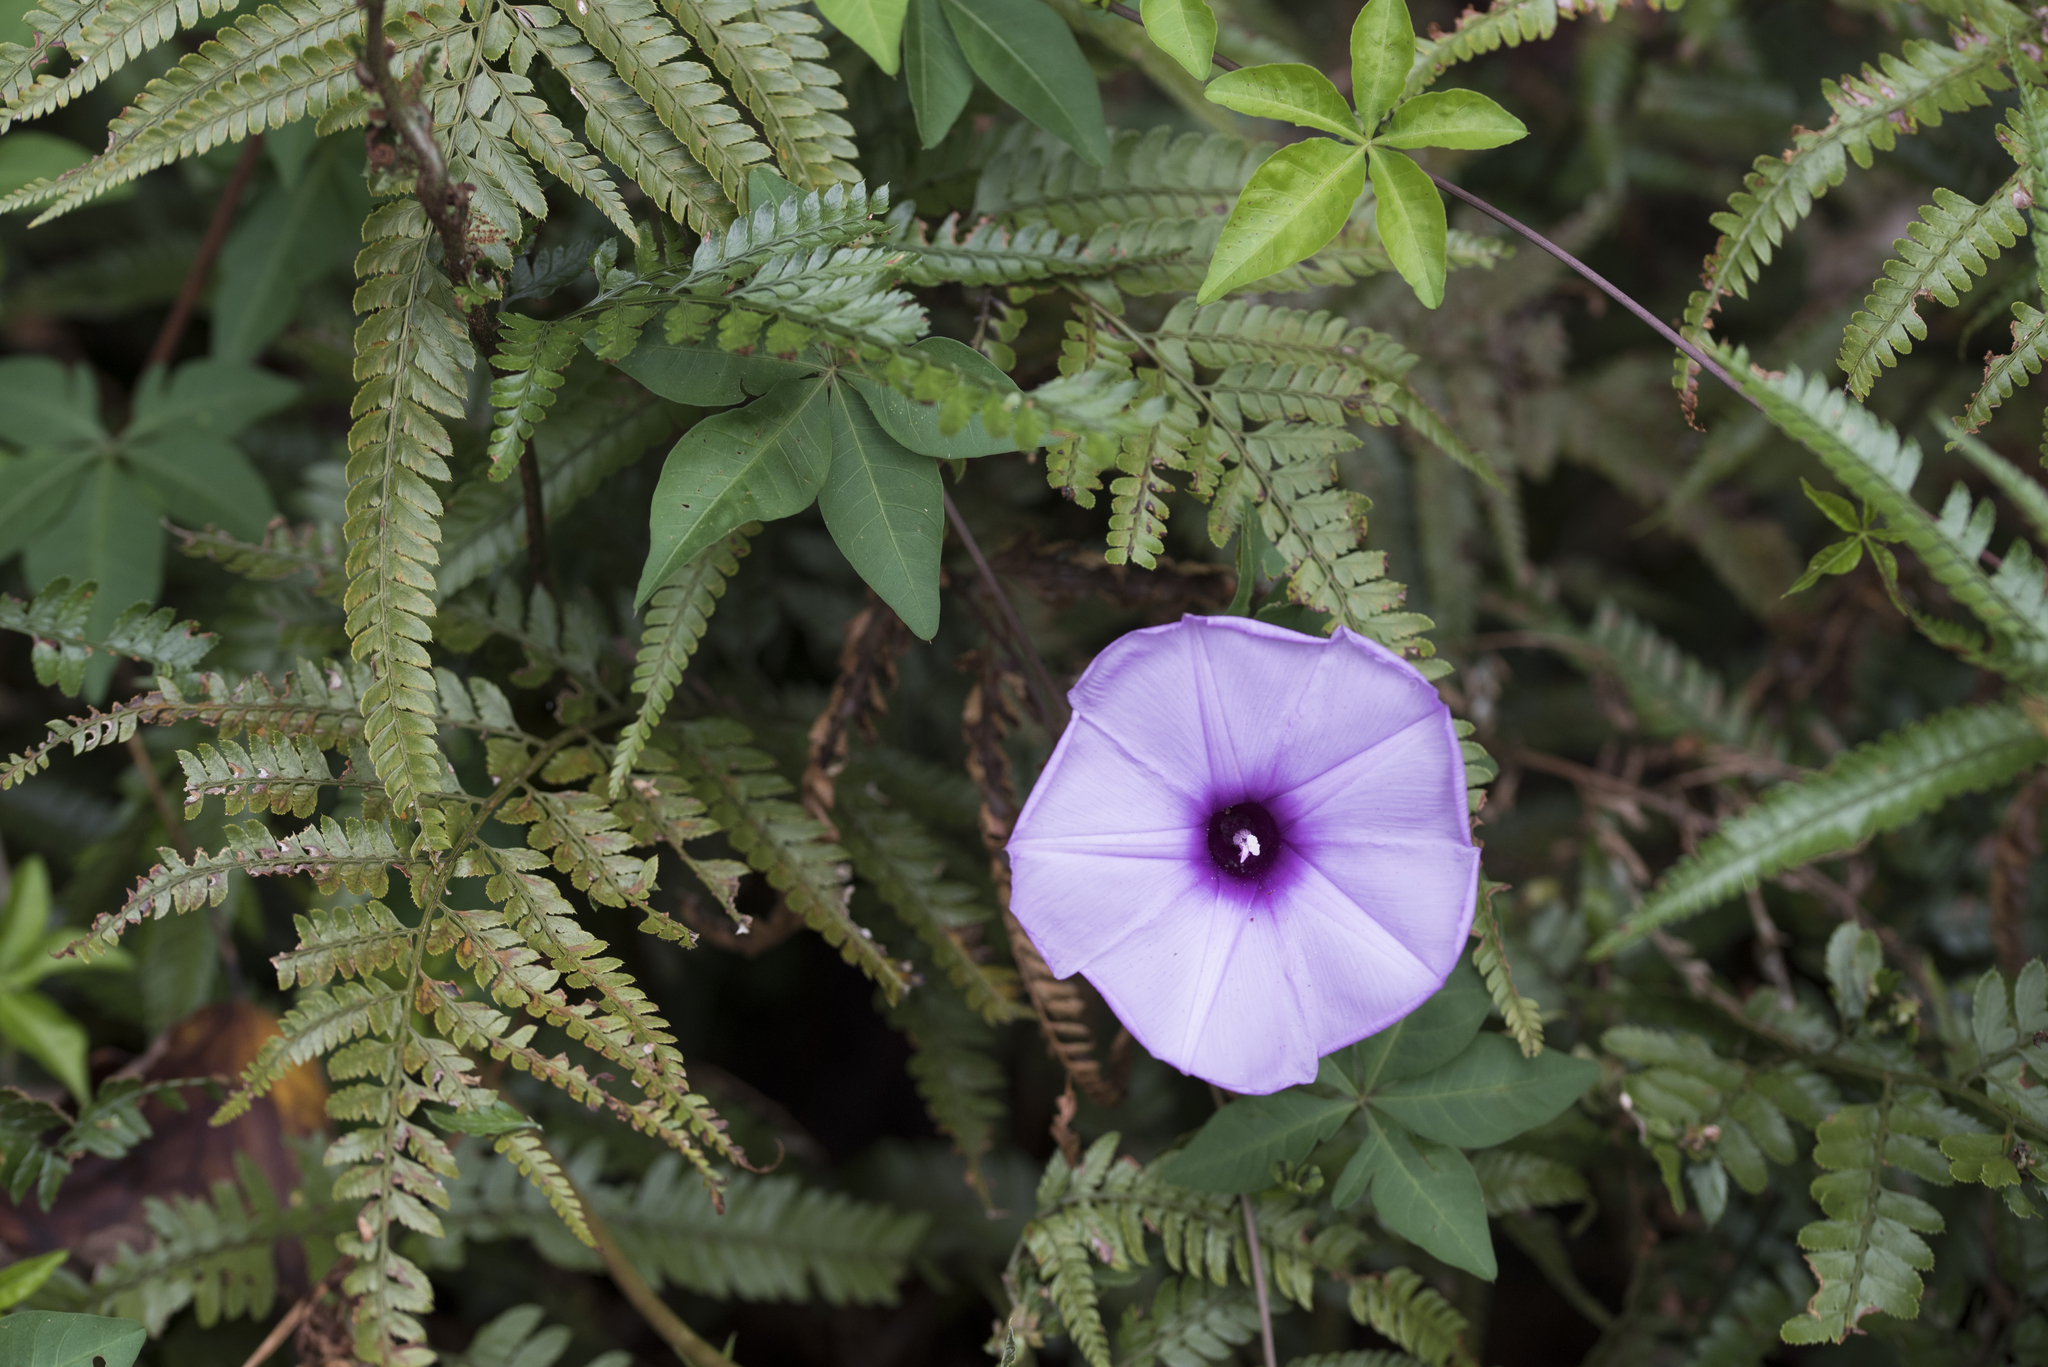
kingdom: Plantae
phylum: Tracheophyta
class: Magnoliopsida
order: Solanales
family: Convolvulaceae
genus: Ipomoea
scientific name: Ipomoea cairica
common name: Mile a minute vine
